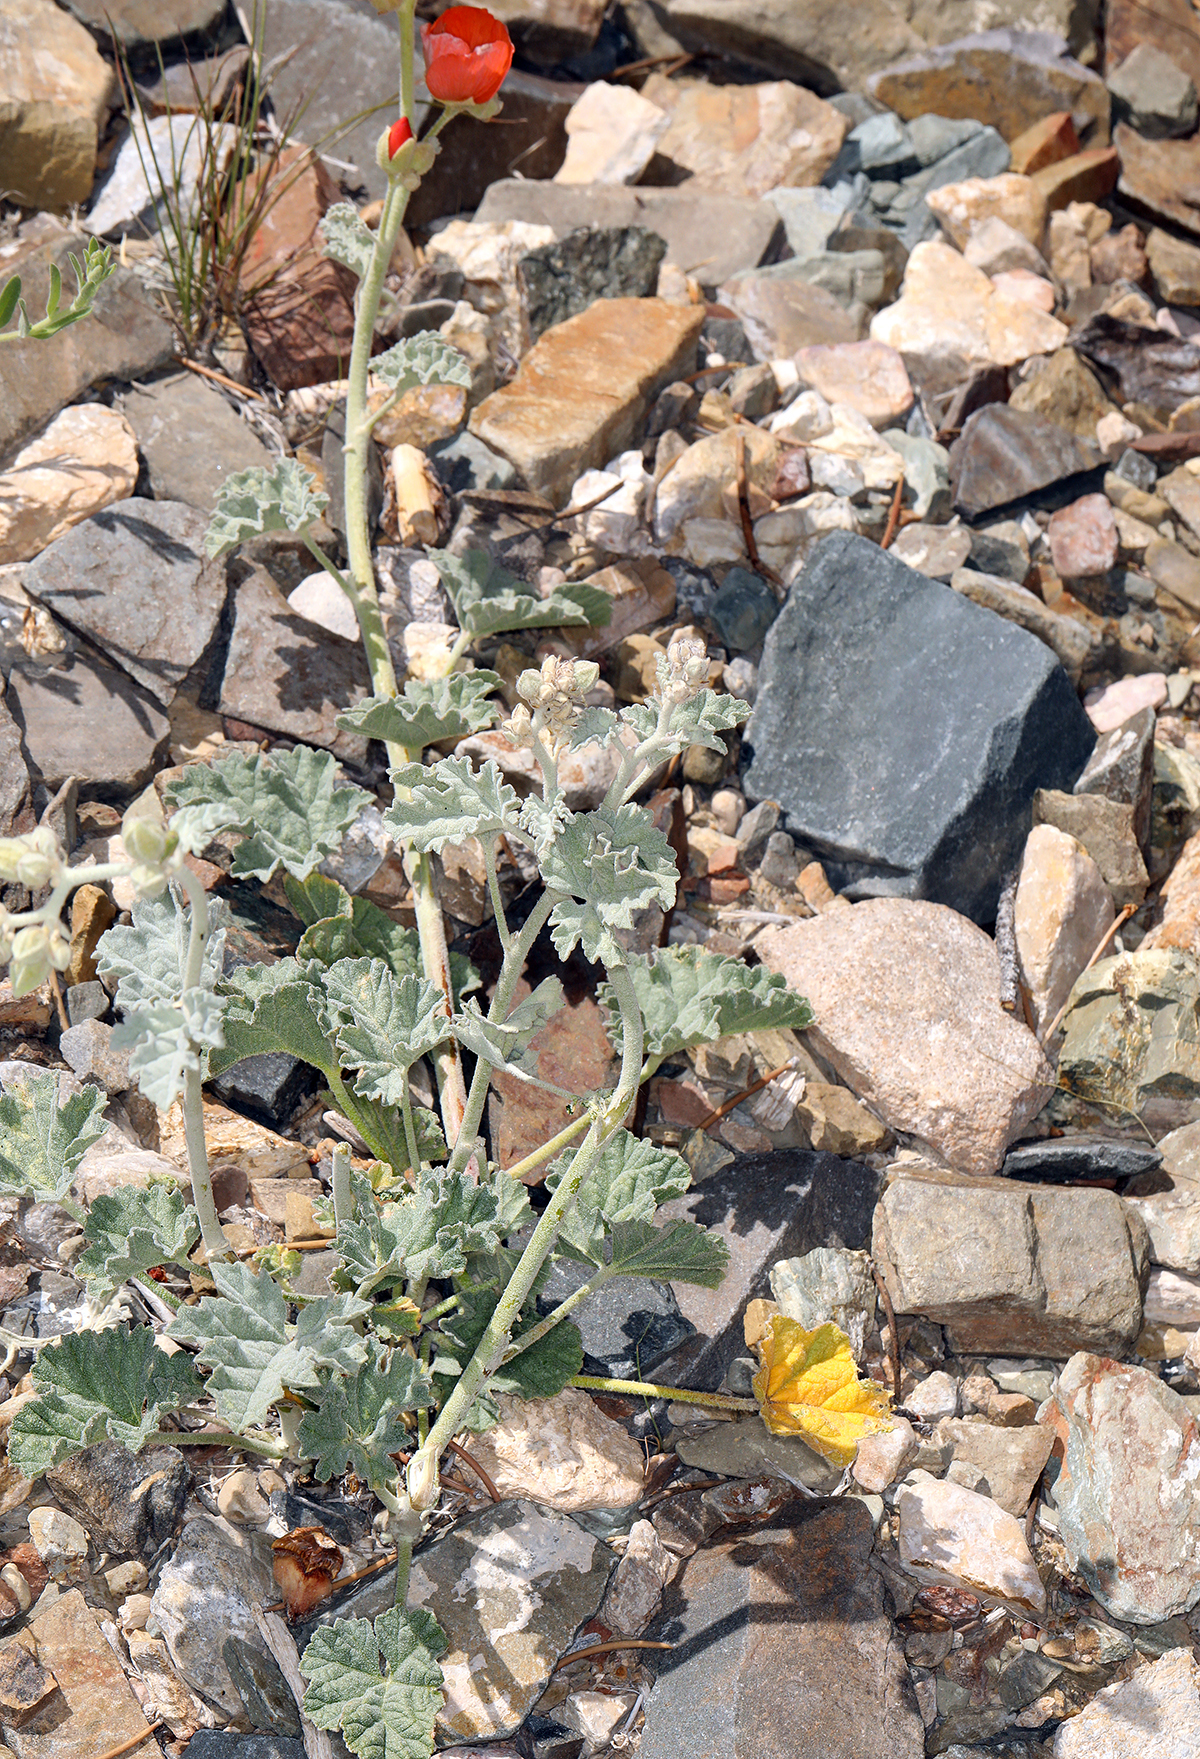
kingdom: Plantae
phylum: Tracheophyta
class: Magnoliopsida
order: Malvales
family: Malvaceae
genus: Sphaeralcea
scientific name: Sphaeralcea ambigua
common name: Apricot globe-mallow
